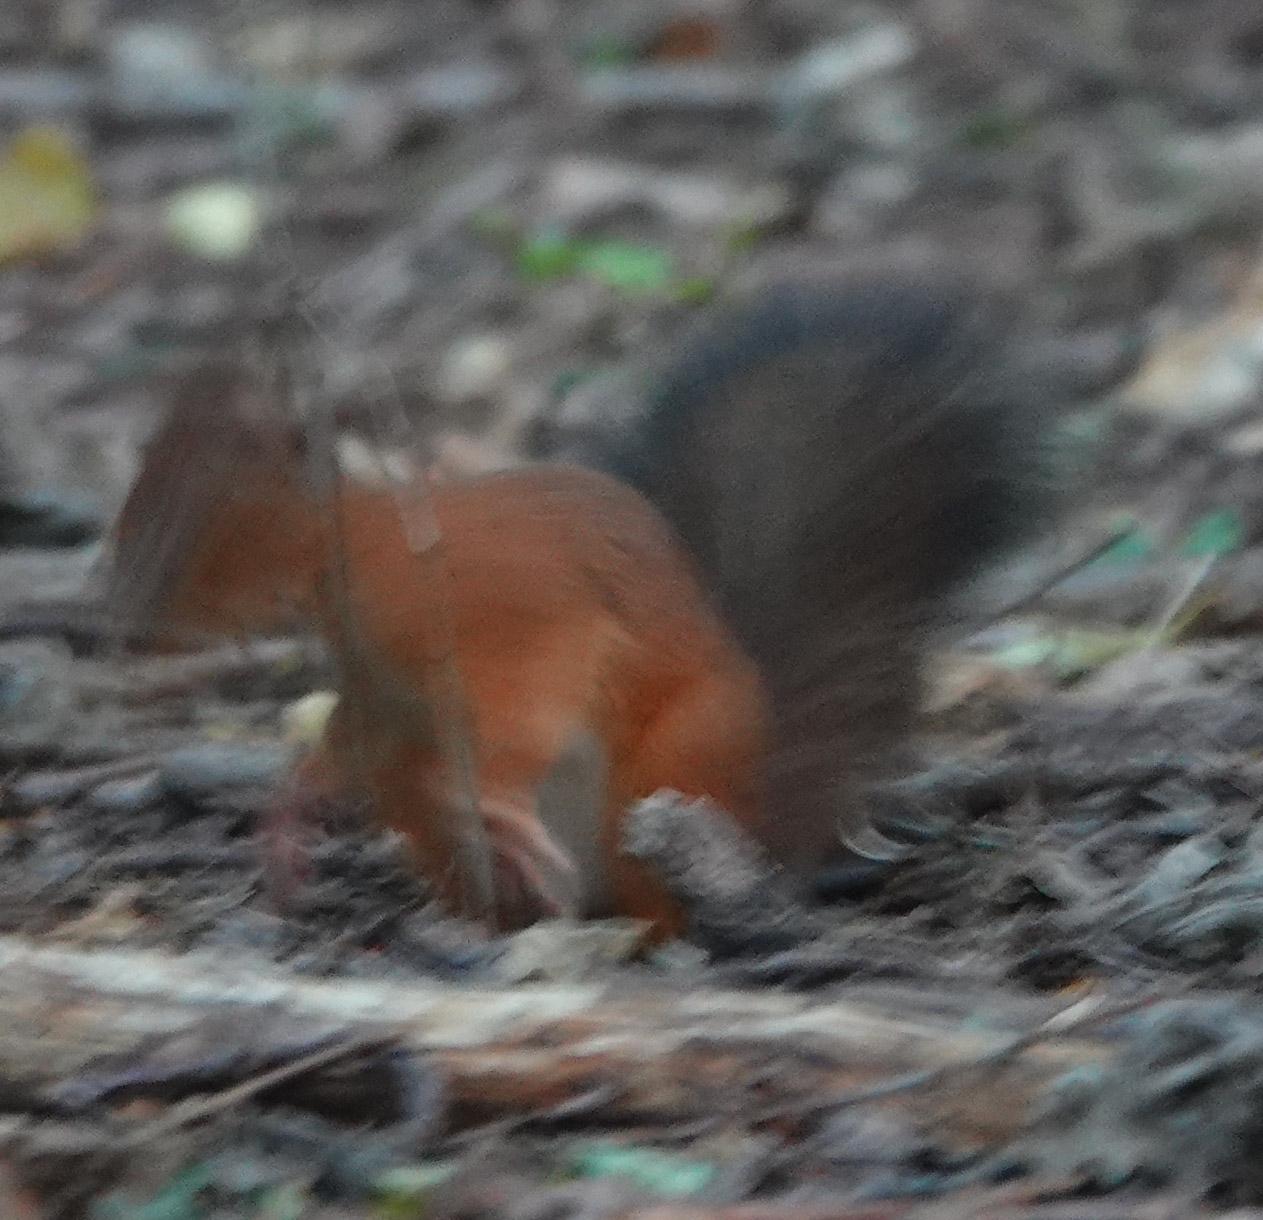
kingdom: Animalia
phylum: Chordata
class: Mammalia
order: Rodentia
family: Sciuridae
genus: Sciurus
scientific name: Sciurus vulgaris
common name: Eurasian red squirrel
